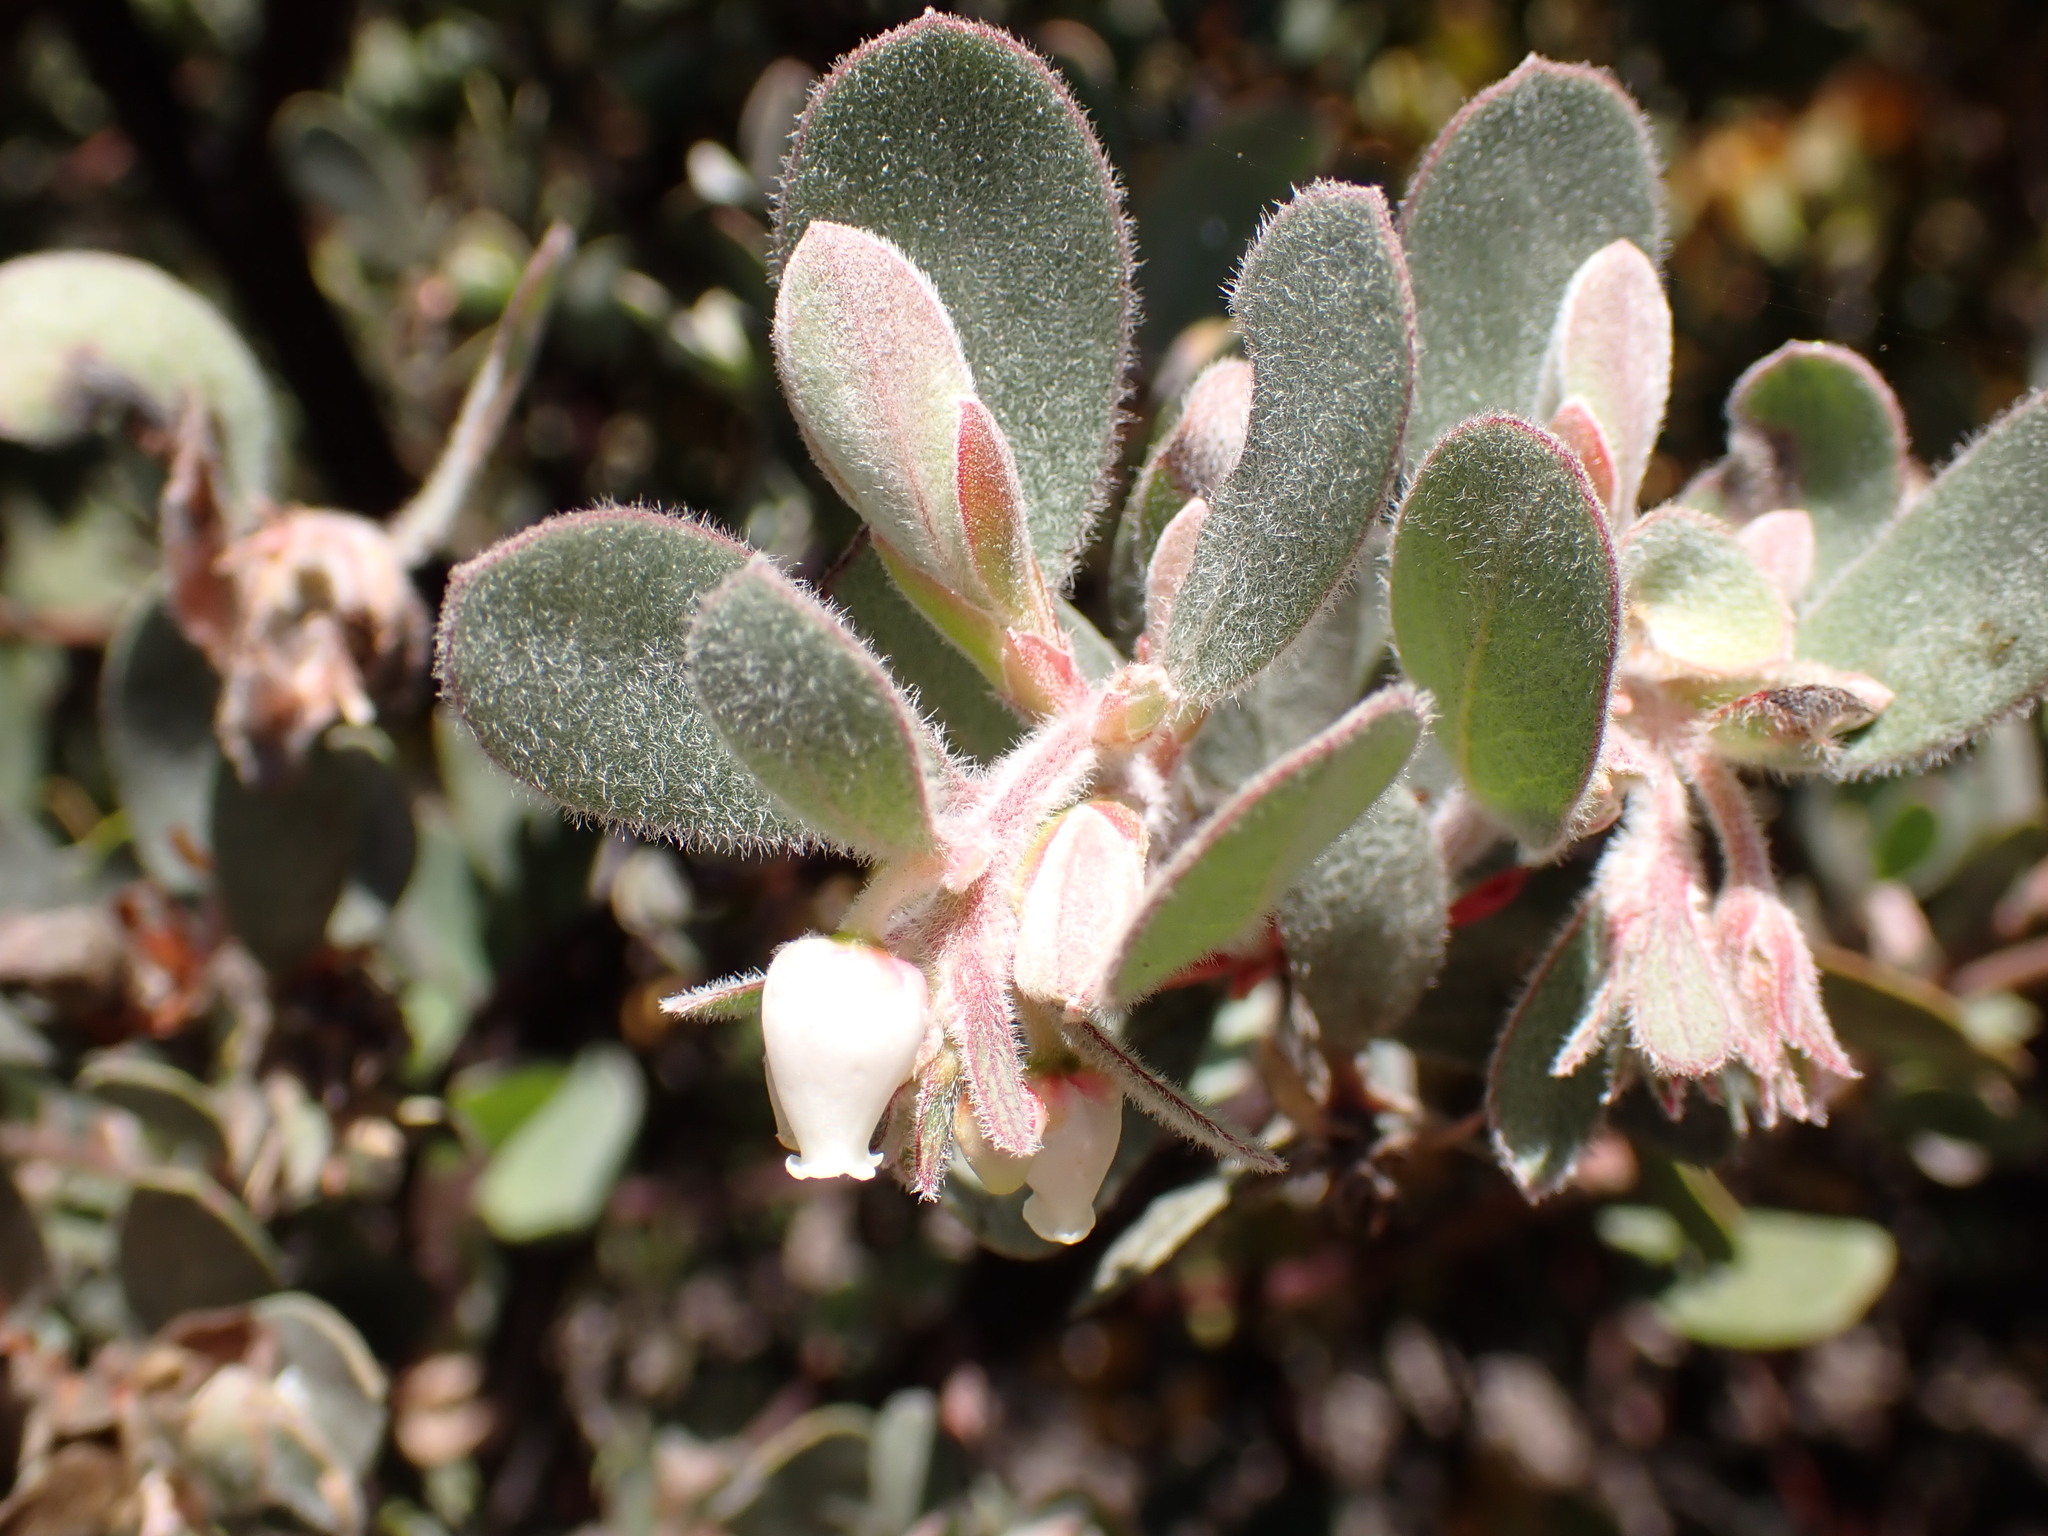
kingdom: Plantae
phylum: Tracheophyta
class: Magnoliopsida
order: Ericales
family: Ericaceae
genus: Arctostaphylos
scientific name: Arctostaphylos silvicola
